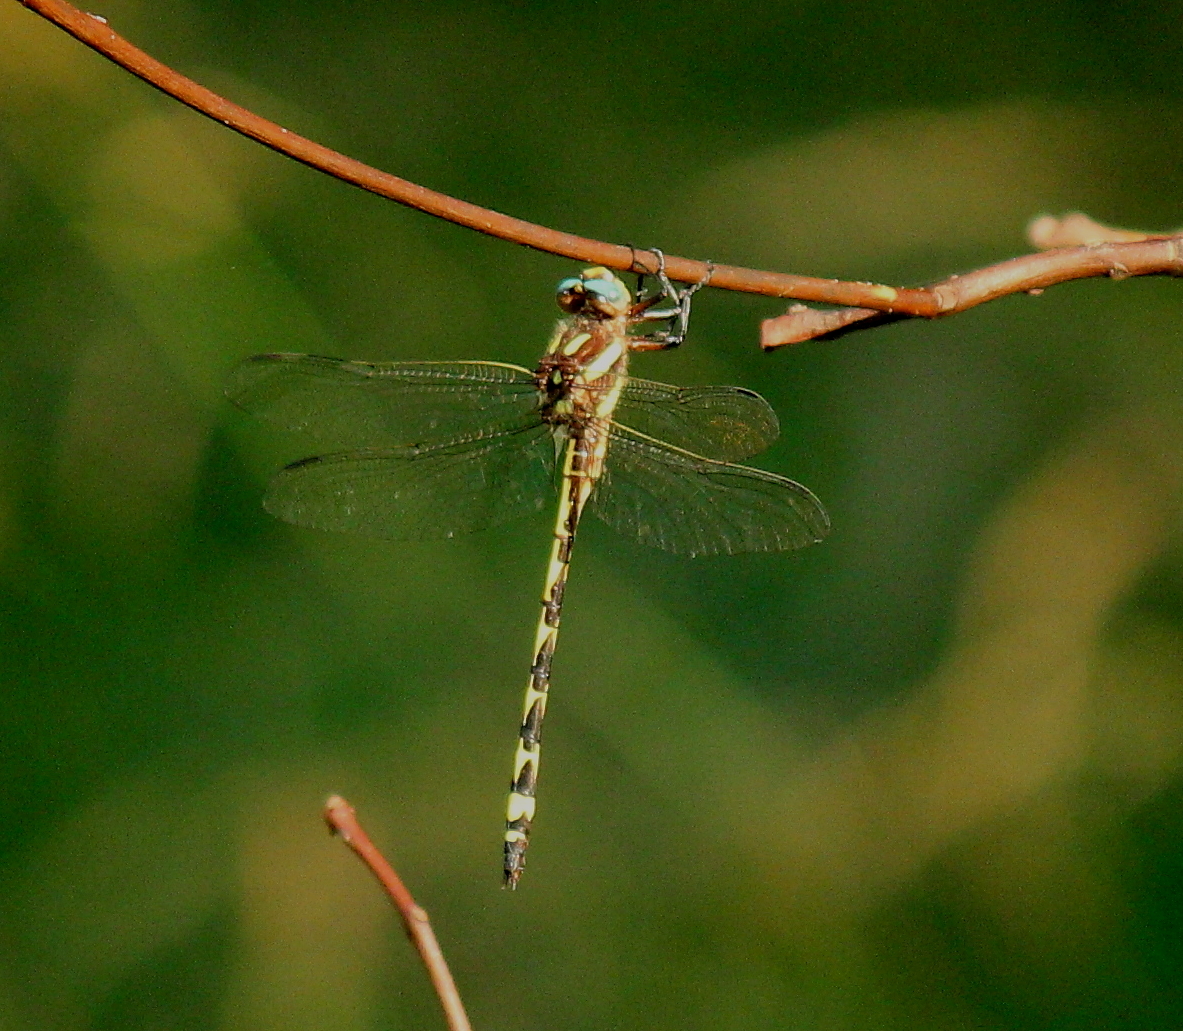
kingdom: Animalia
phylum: Arthropoda
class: Insecta
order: Odonata
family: Cordulegastridae
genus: Cordulegaster
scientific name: Cordulegaster obliqua
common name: Arrowhead spiketail
